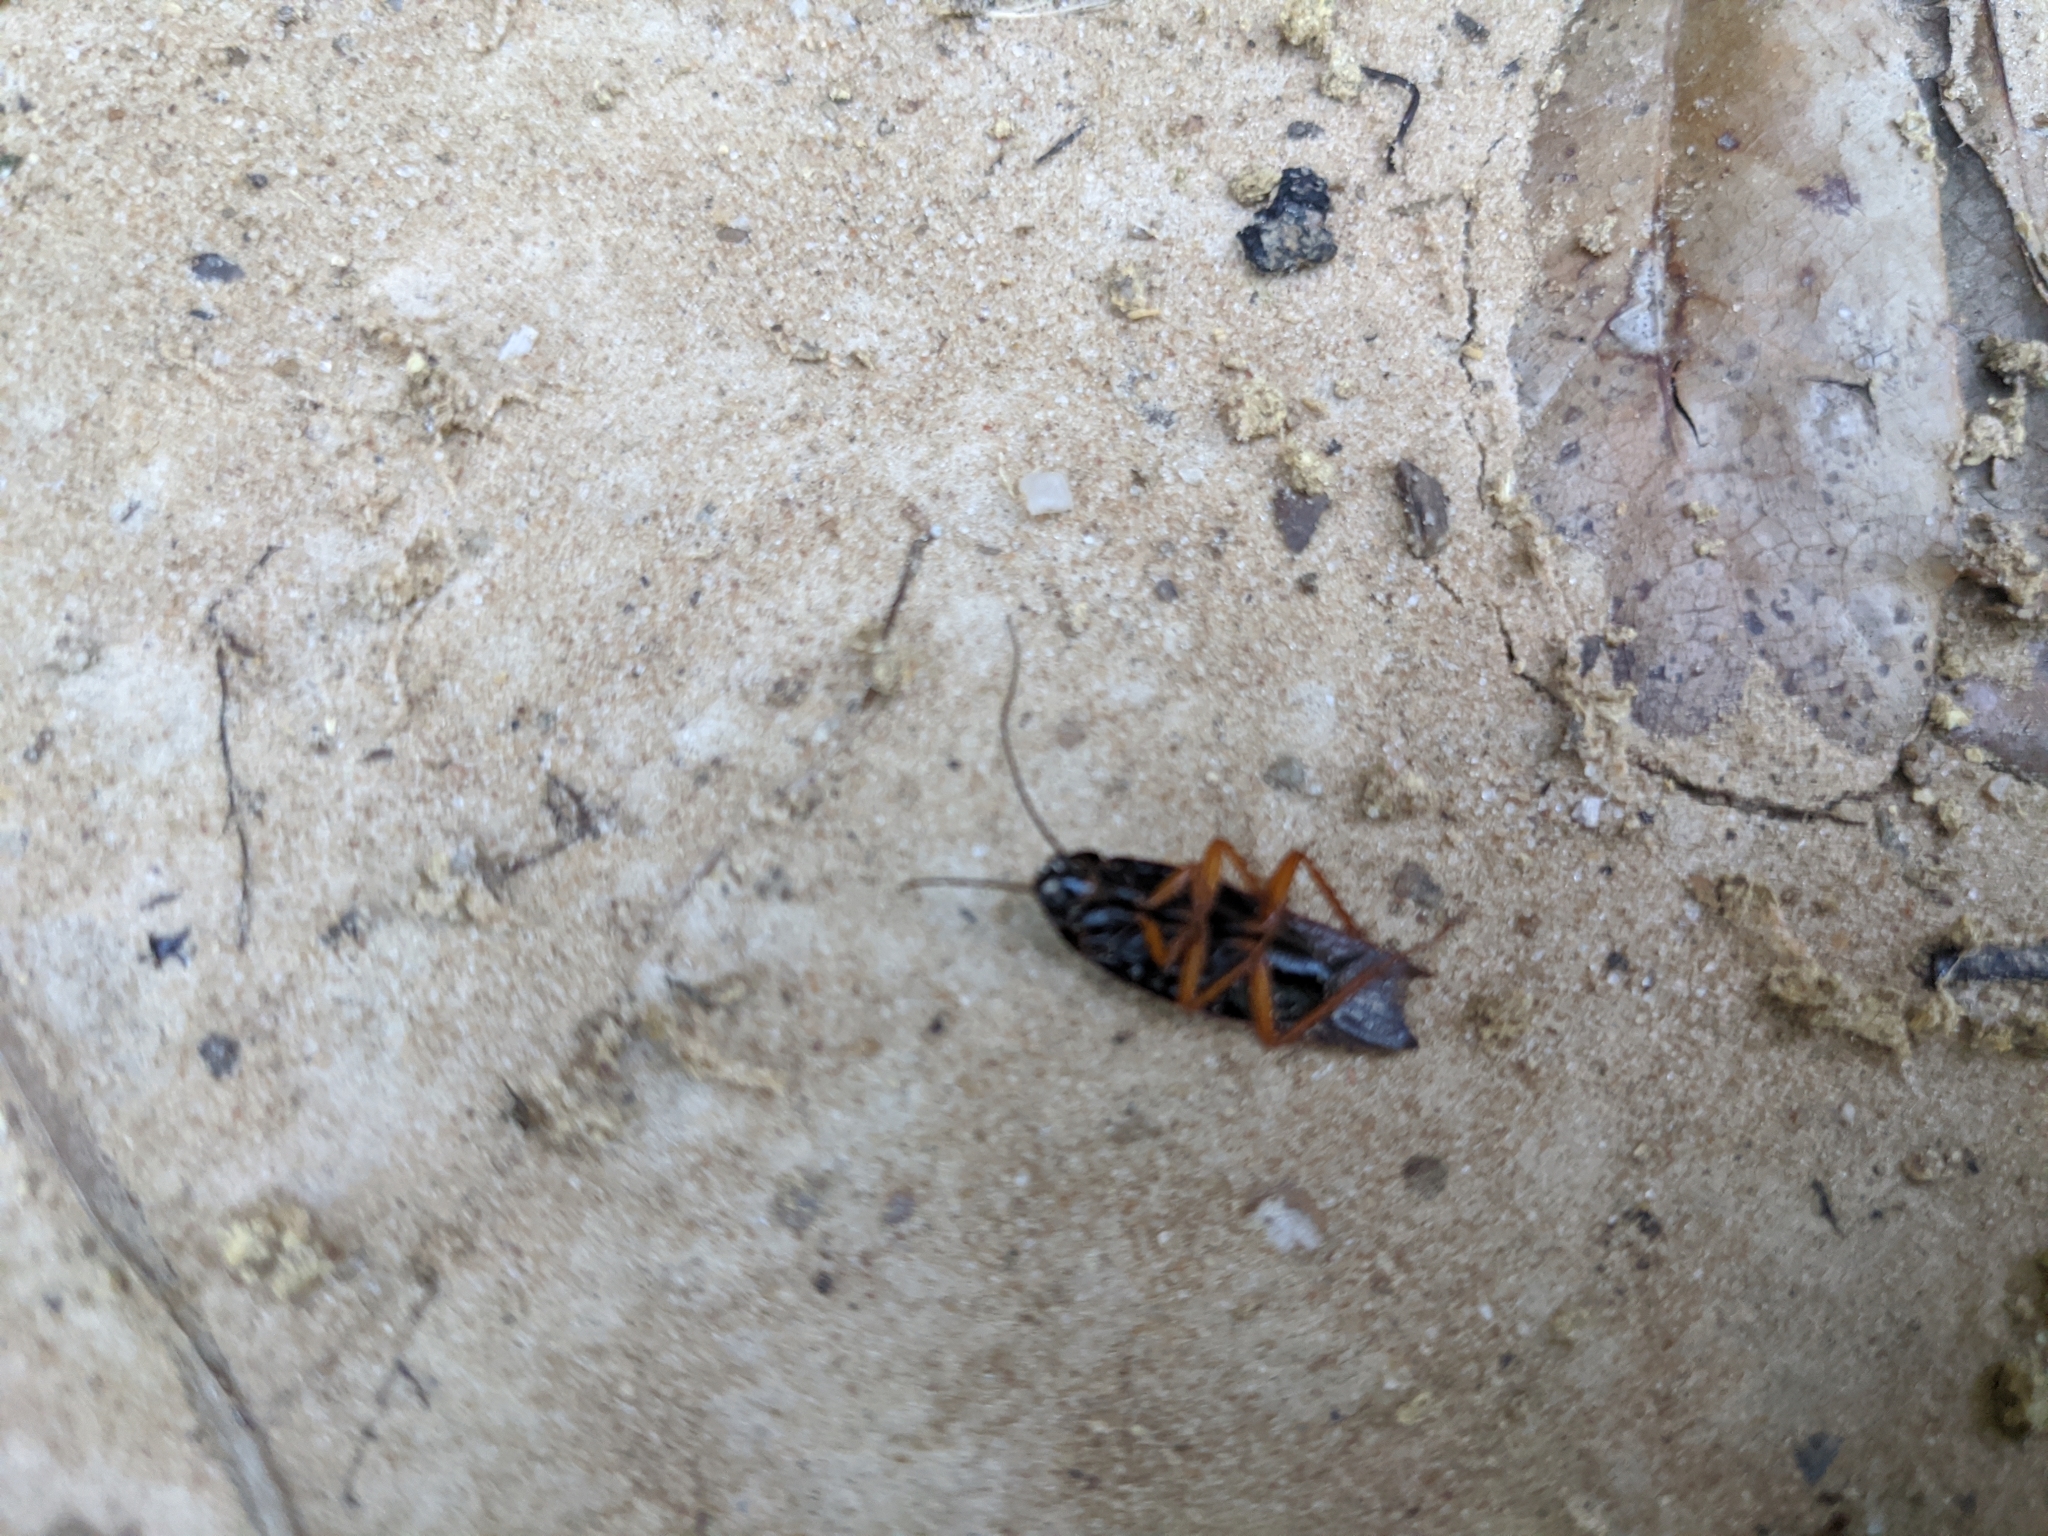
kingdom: Animalia
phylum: Arthropoda
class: Insecta
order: Blattodea
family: Ectobiidae
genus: Ischnoptera
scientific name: Ischnoptera deropeltiformis
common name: Dark wood cockroach
